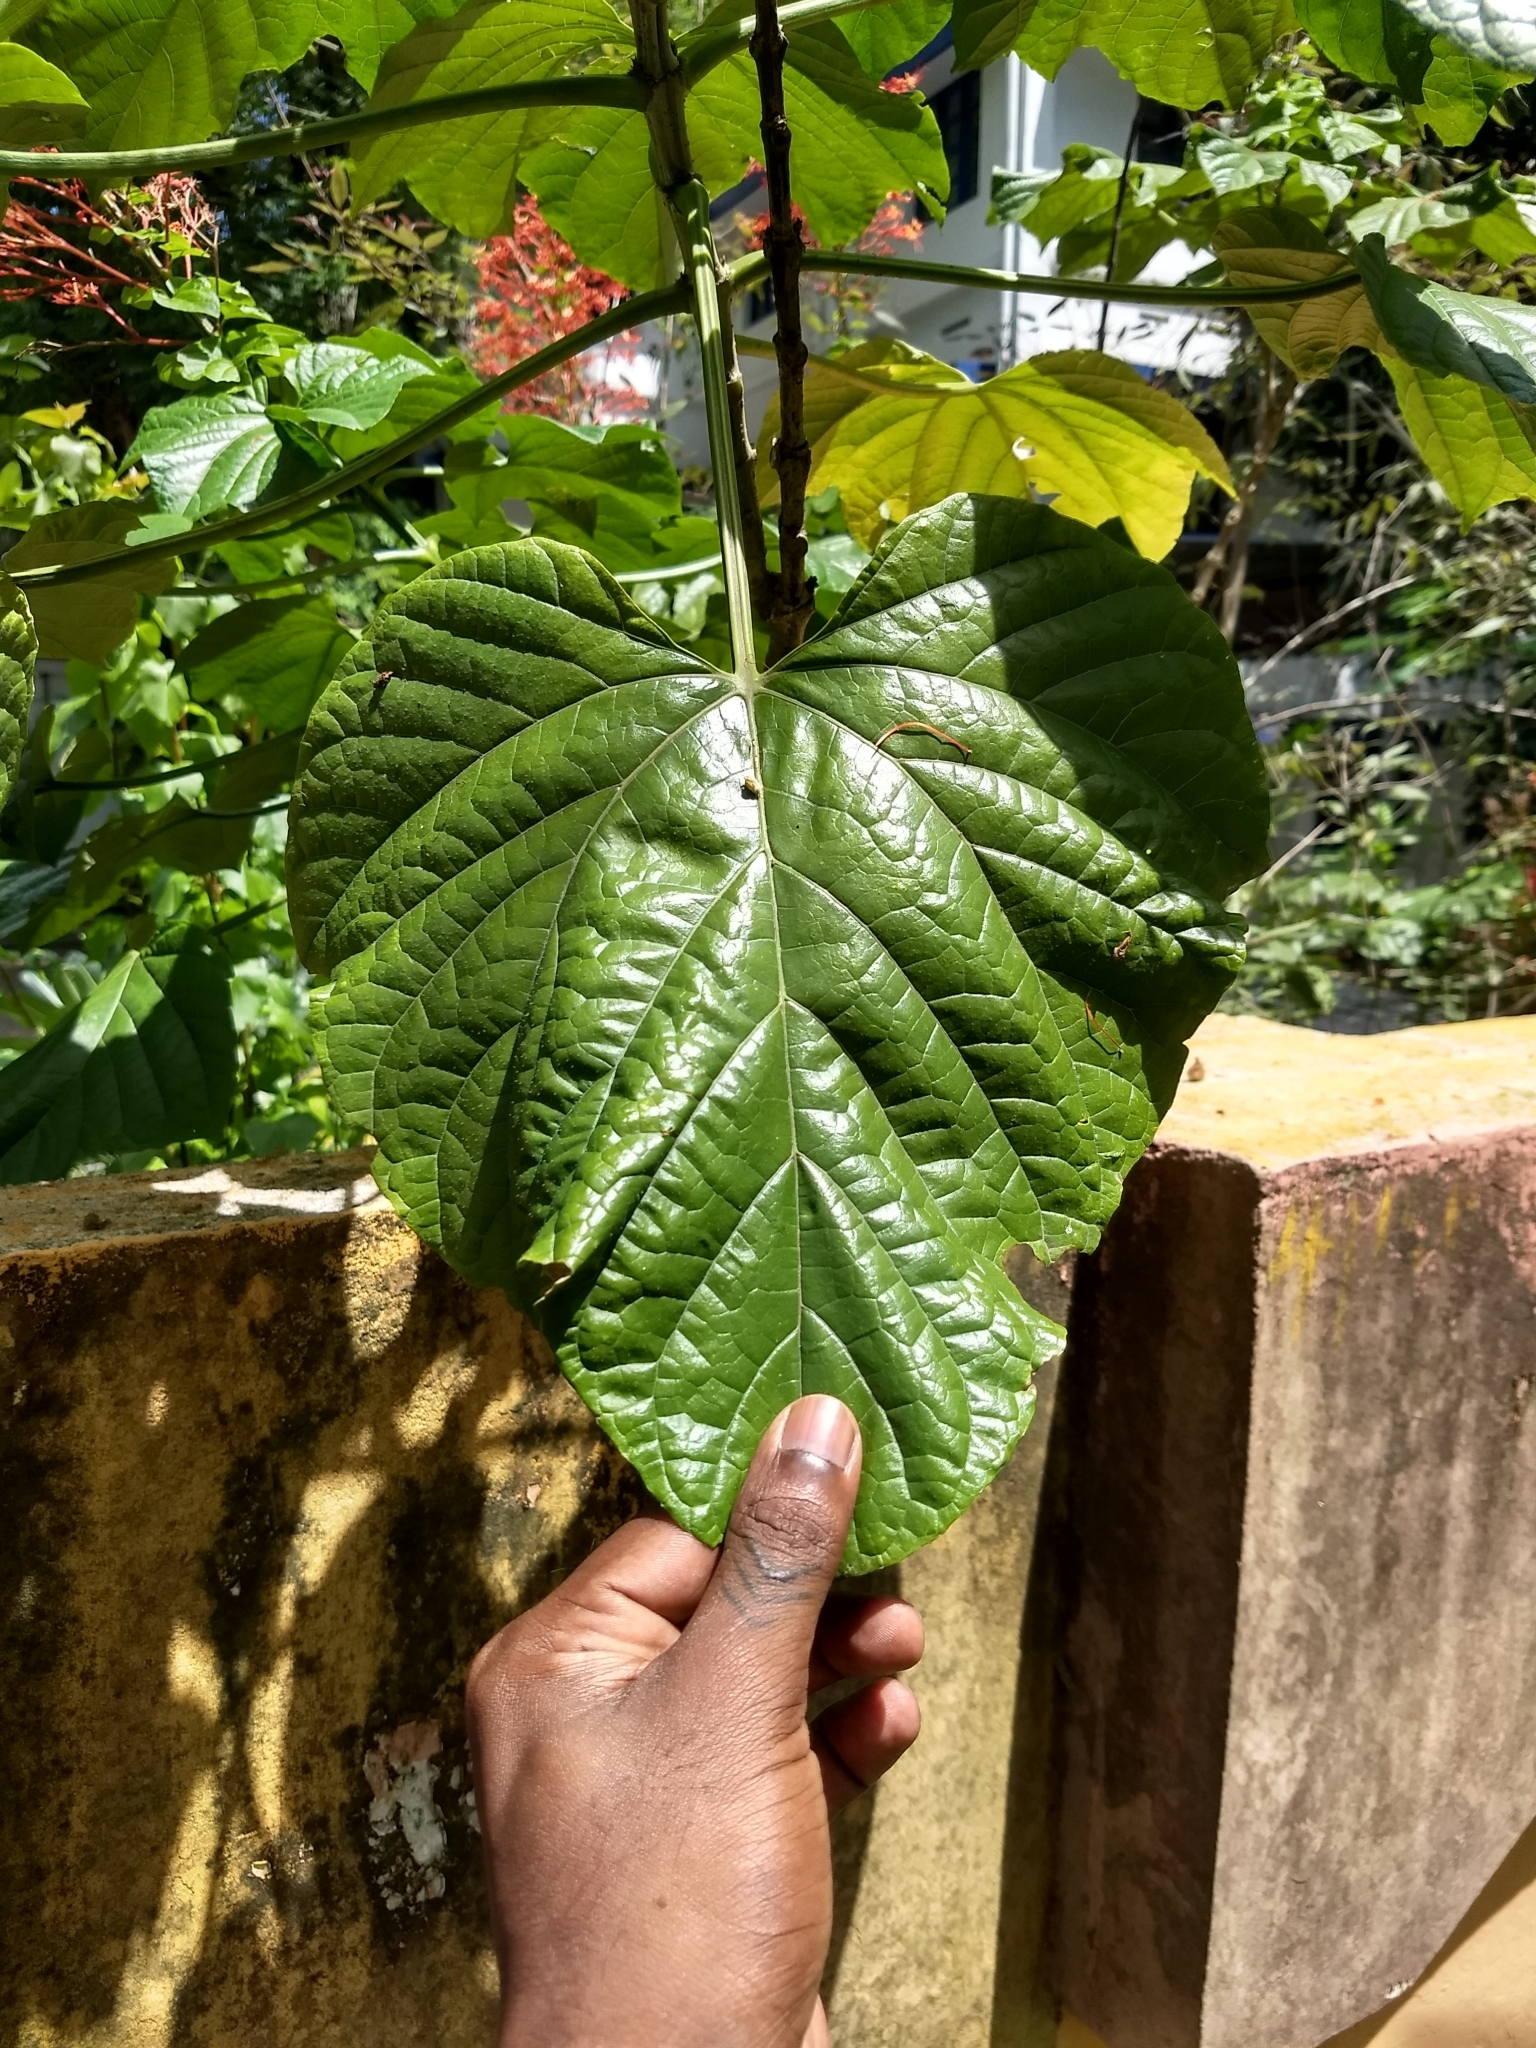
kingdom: Plantae
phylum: Tracheophyta
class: Magnoliopsida
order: Lamiales
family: Lamiaceae
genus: Clerodendrum
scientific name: Clerodendrum paniculatum
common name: Pagoda-flower
